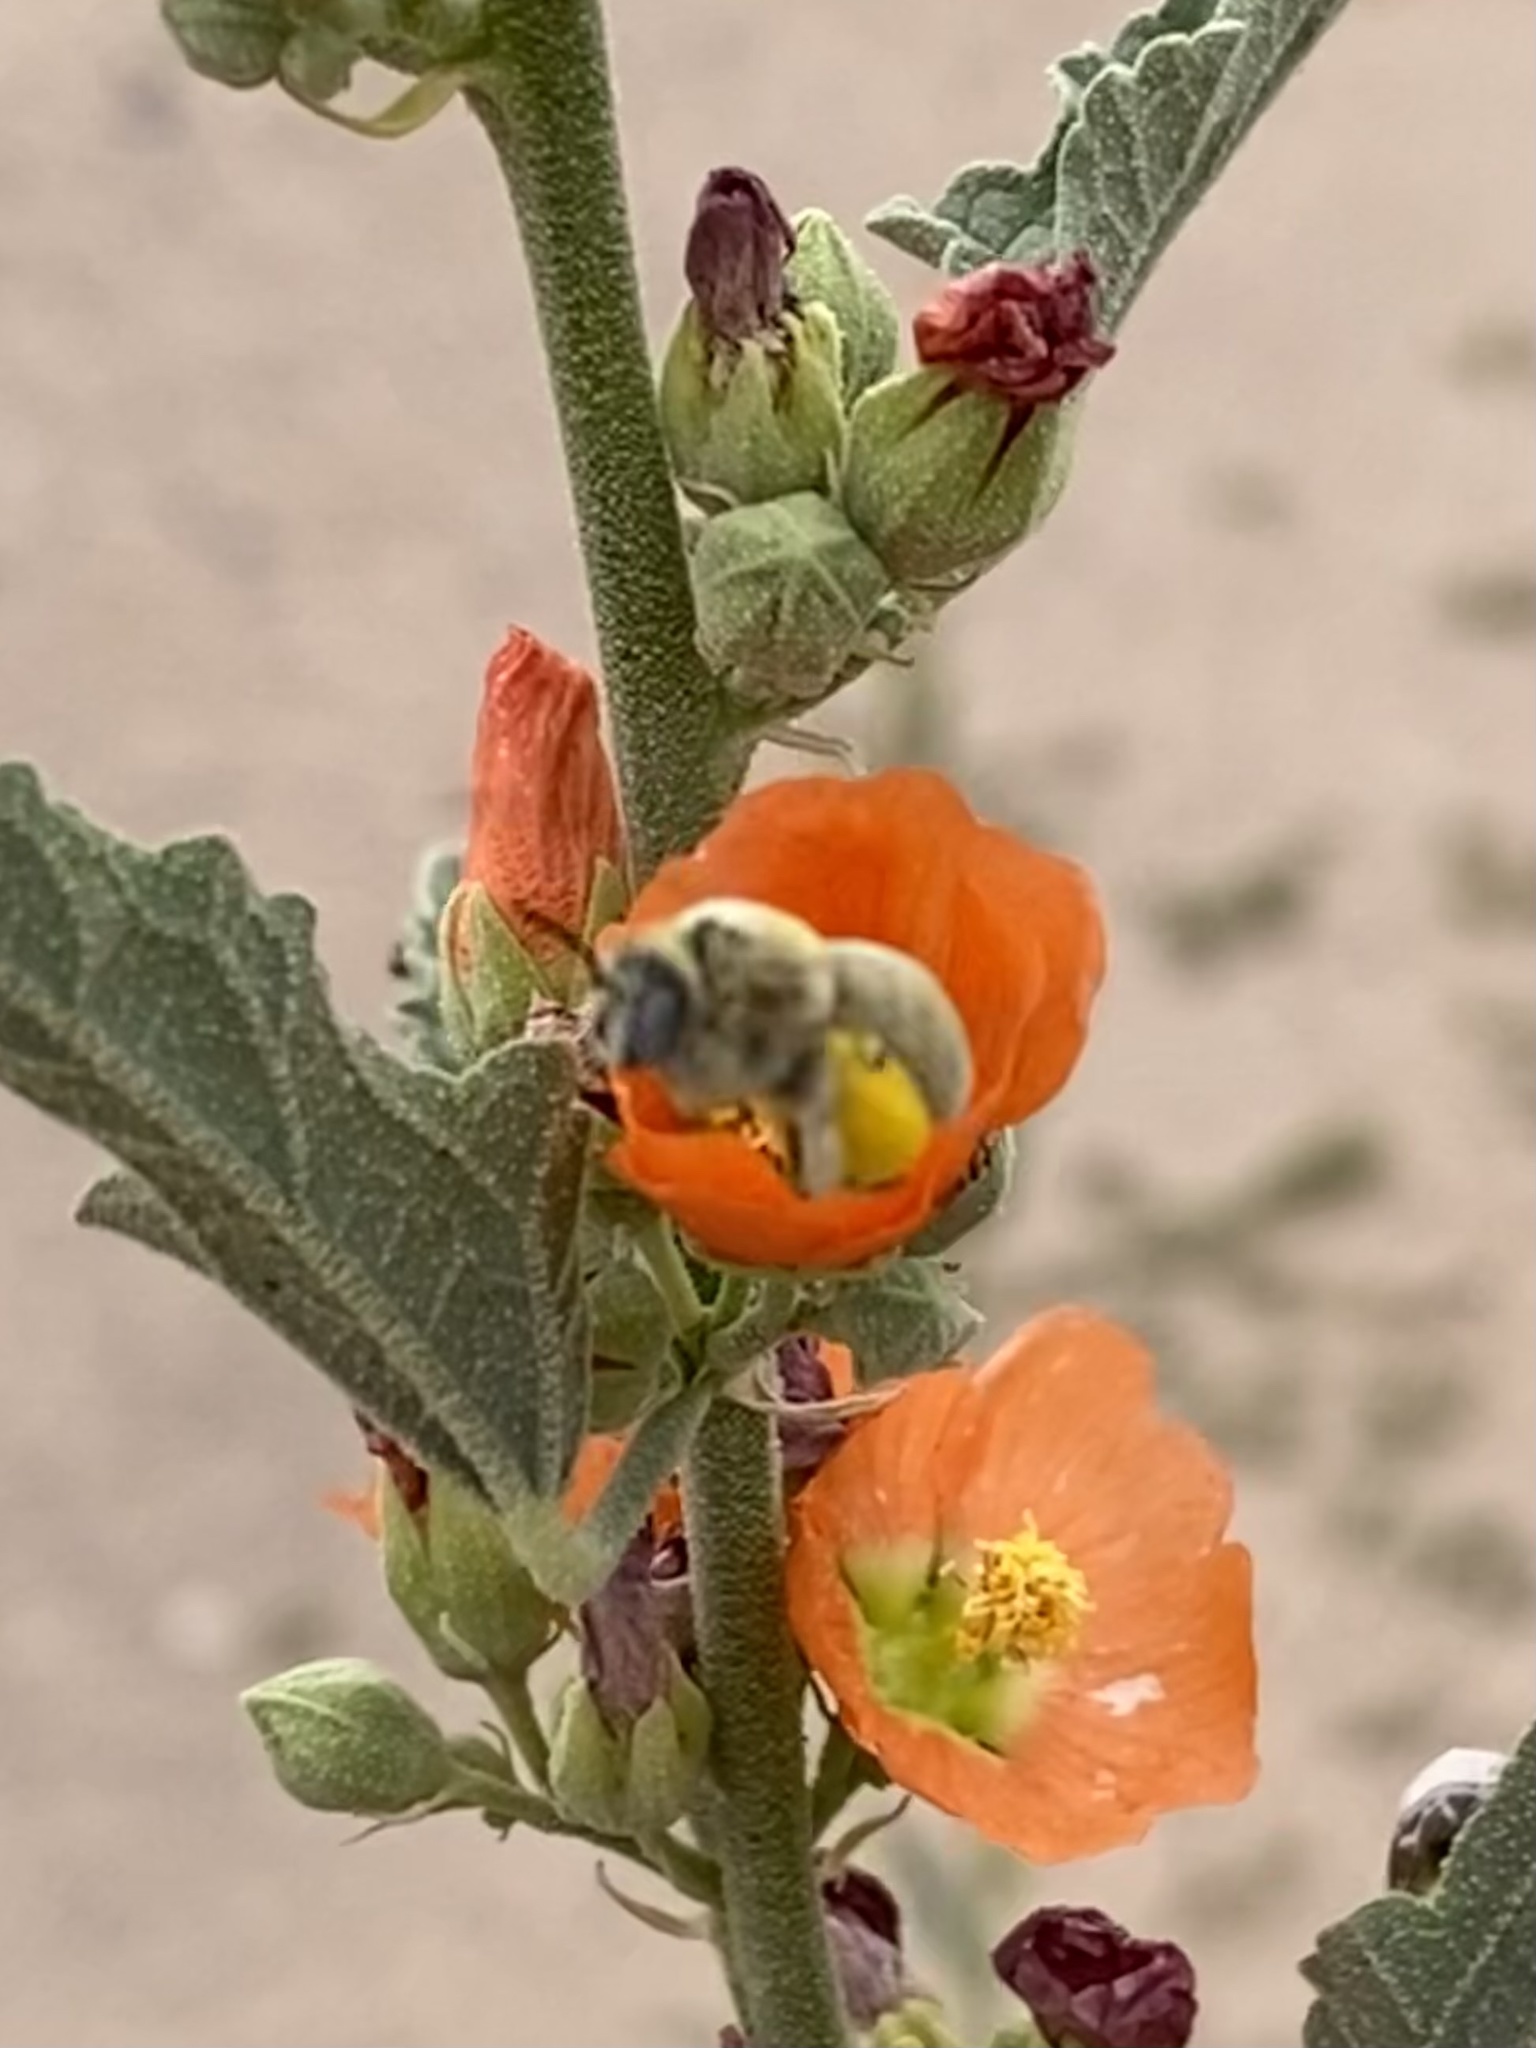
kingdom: Animalia
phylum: Arthropoda
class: Insecta
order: Hymenoptera
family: Apidae
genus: Diadasia
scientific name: Diadasia ochracea
